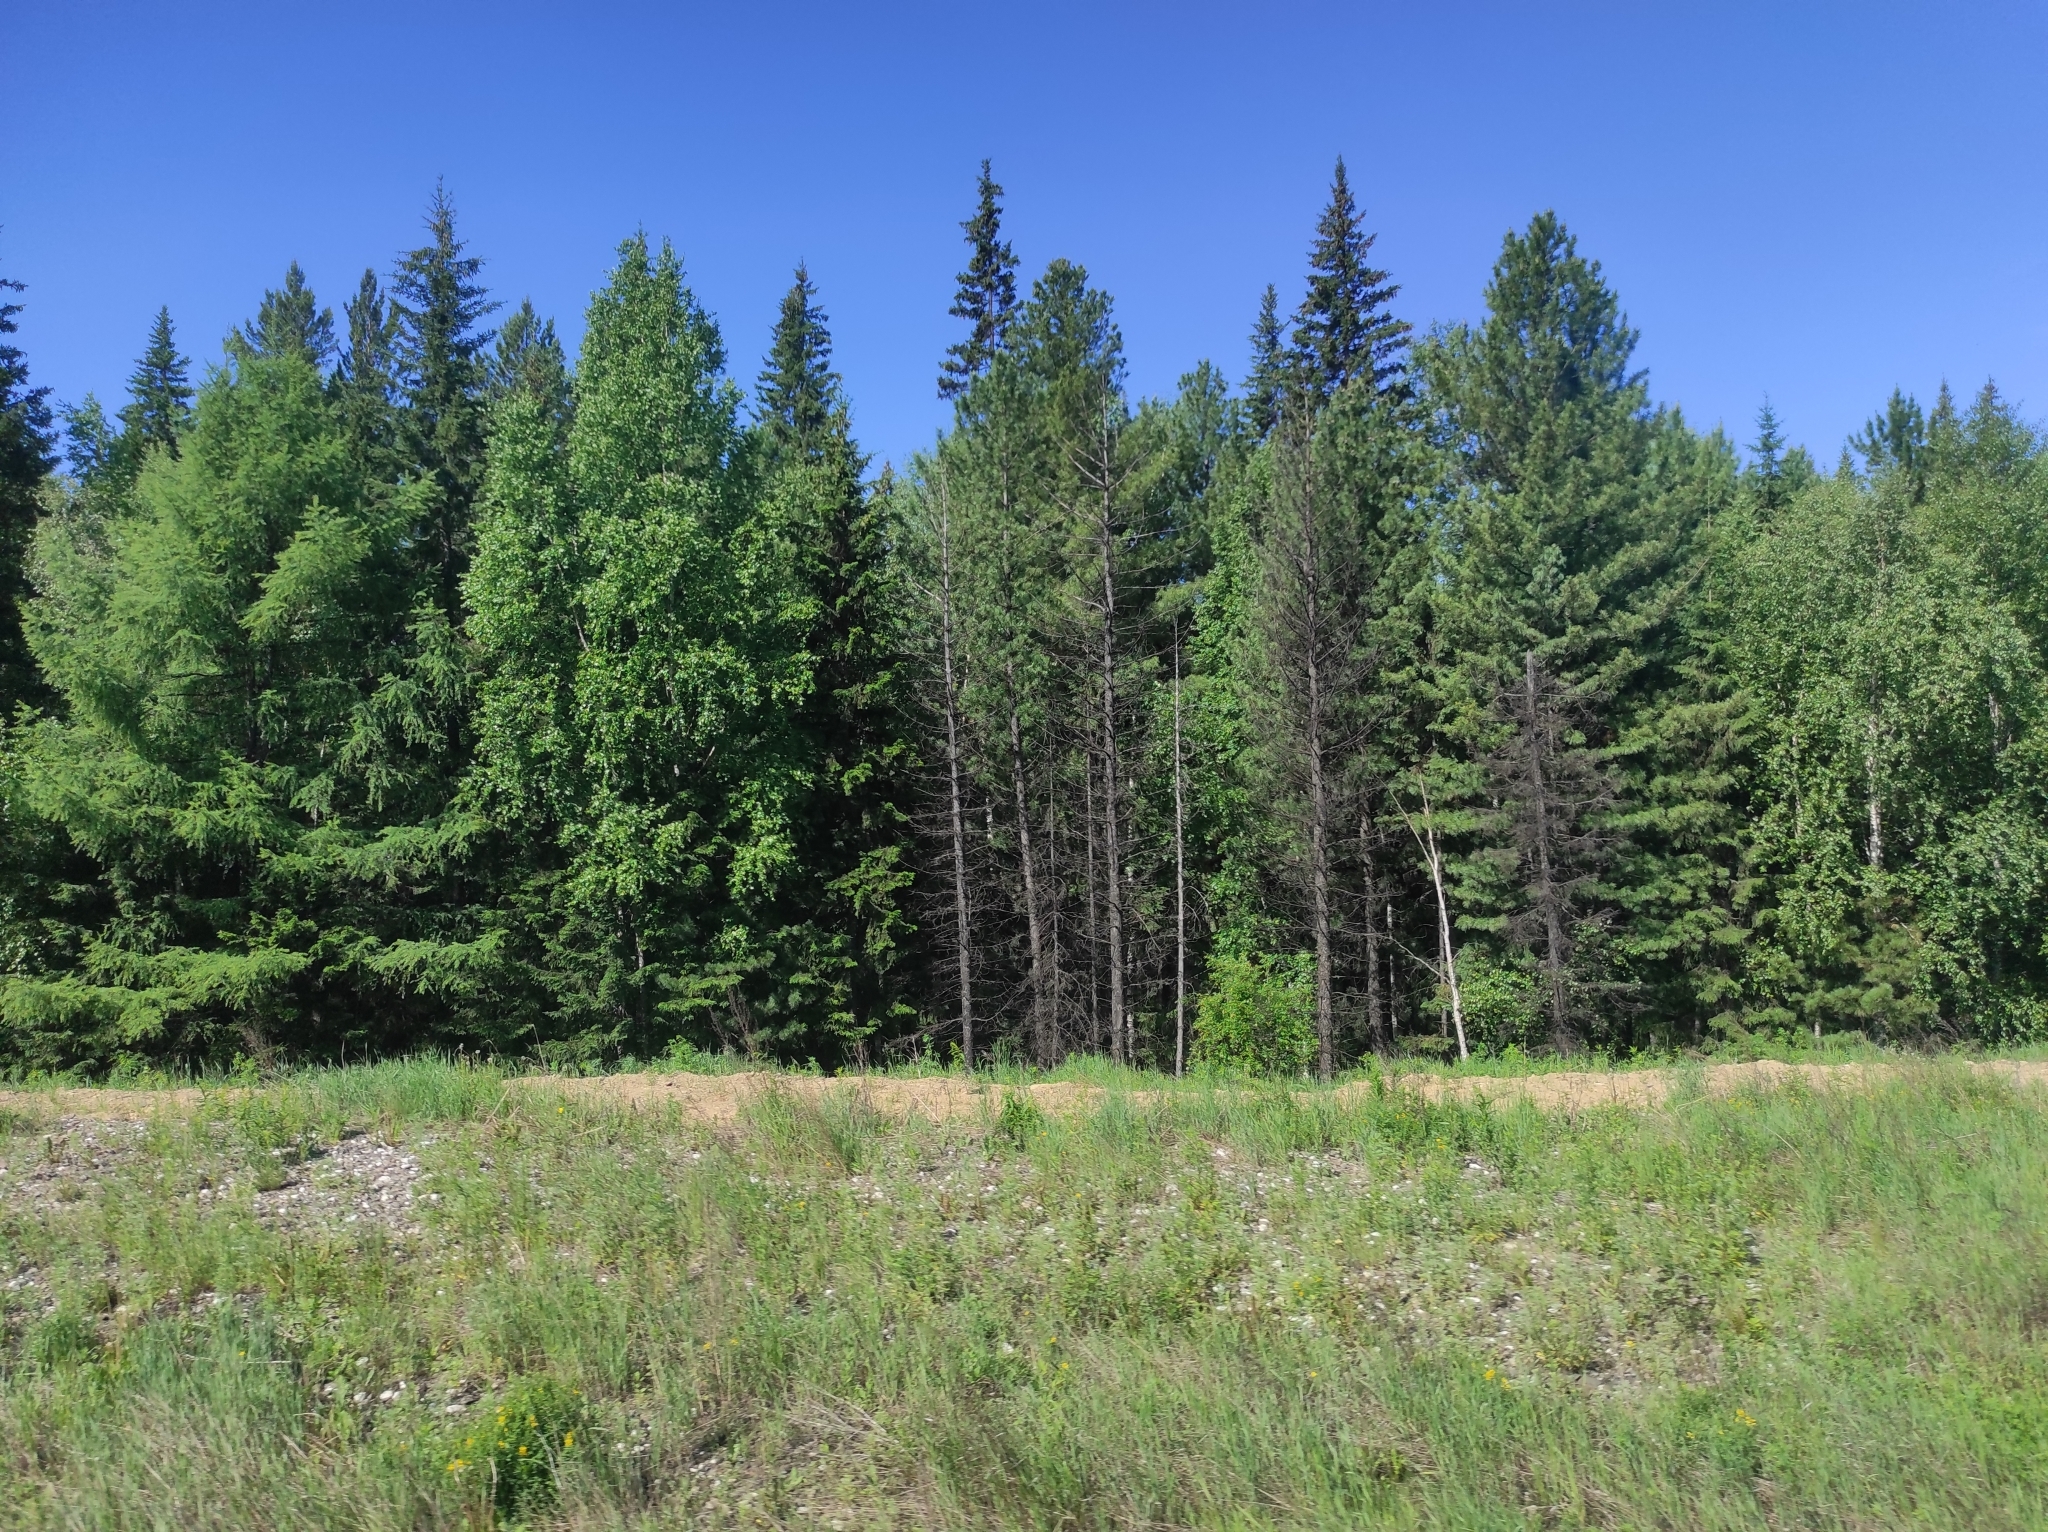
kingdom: Plantae
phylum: Tracheophyta
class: Pinopsida
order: Pinales
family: Pinaceae
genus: Larix
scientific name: Larix sibirica
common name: Siberian larch
